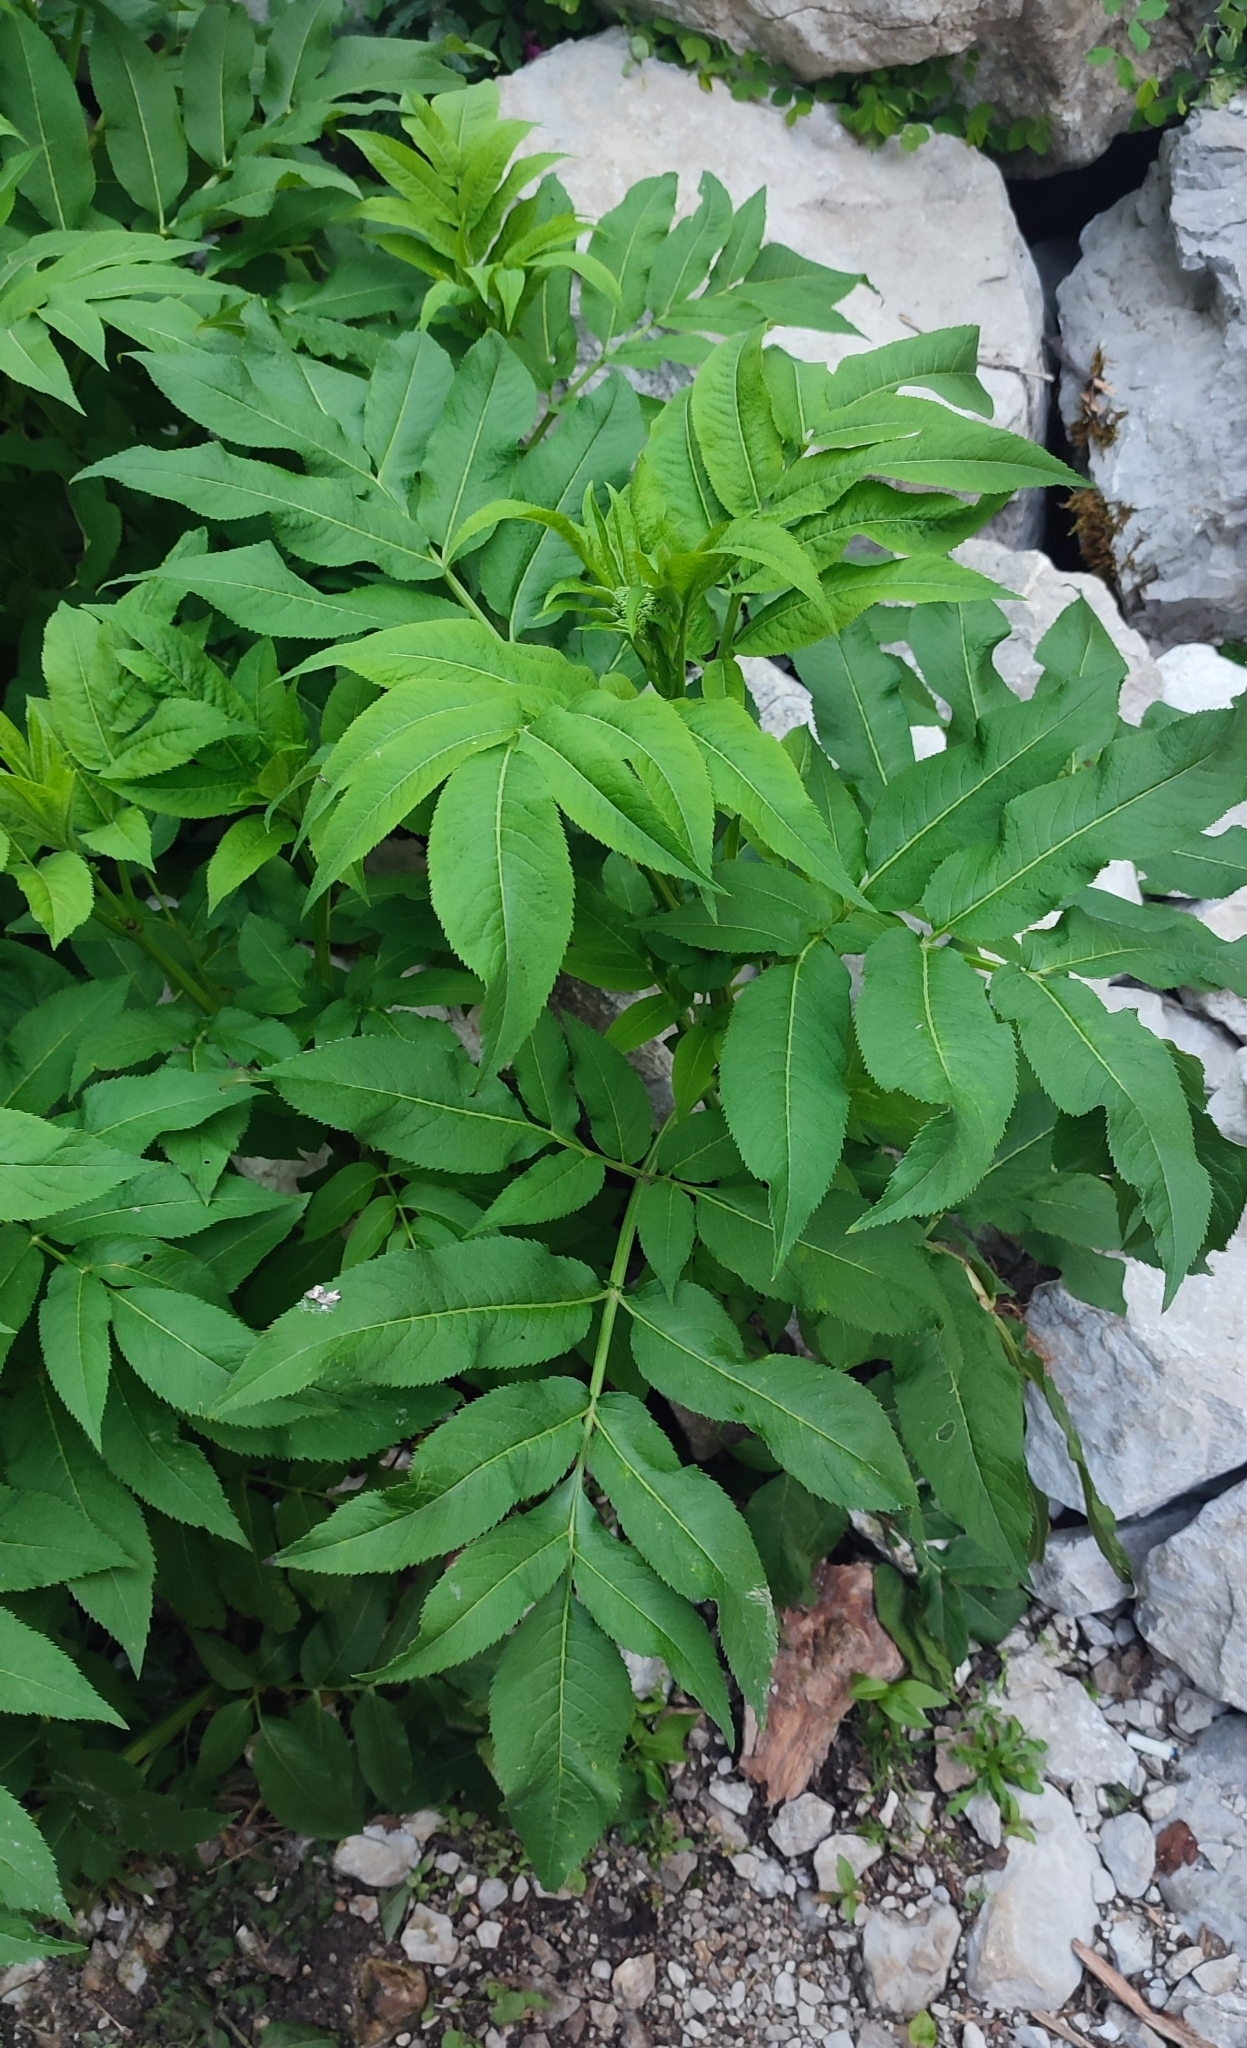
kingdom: Plantae
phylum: Tracheophyta
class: Magnoliopsida
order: Dipsacales
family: Viburnaceae
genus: Sambucus
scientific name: Sambucus ebulus
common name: Dwarf elder
